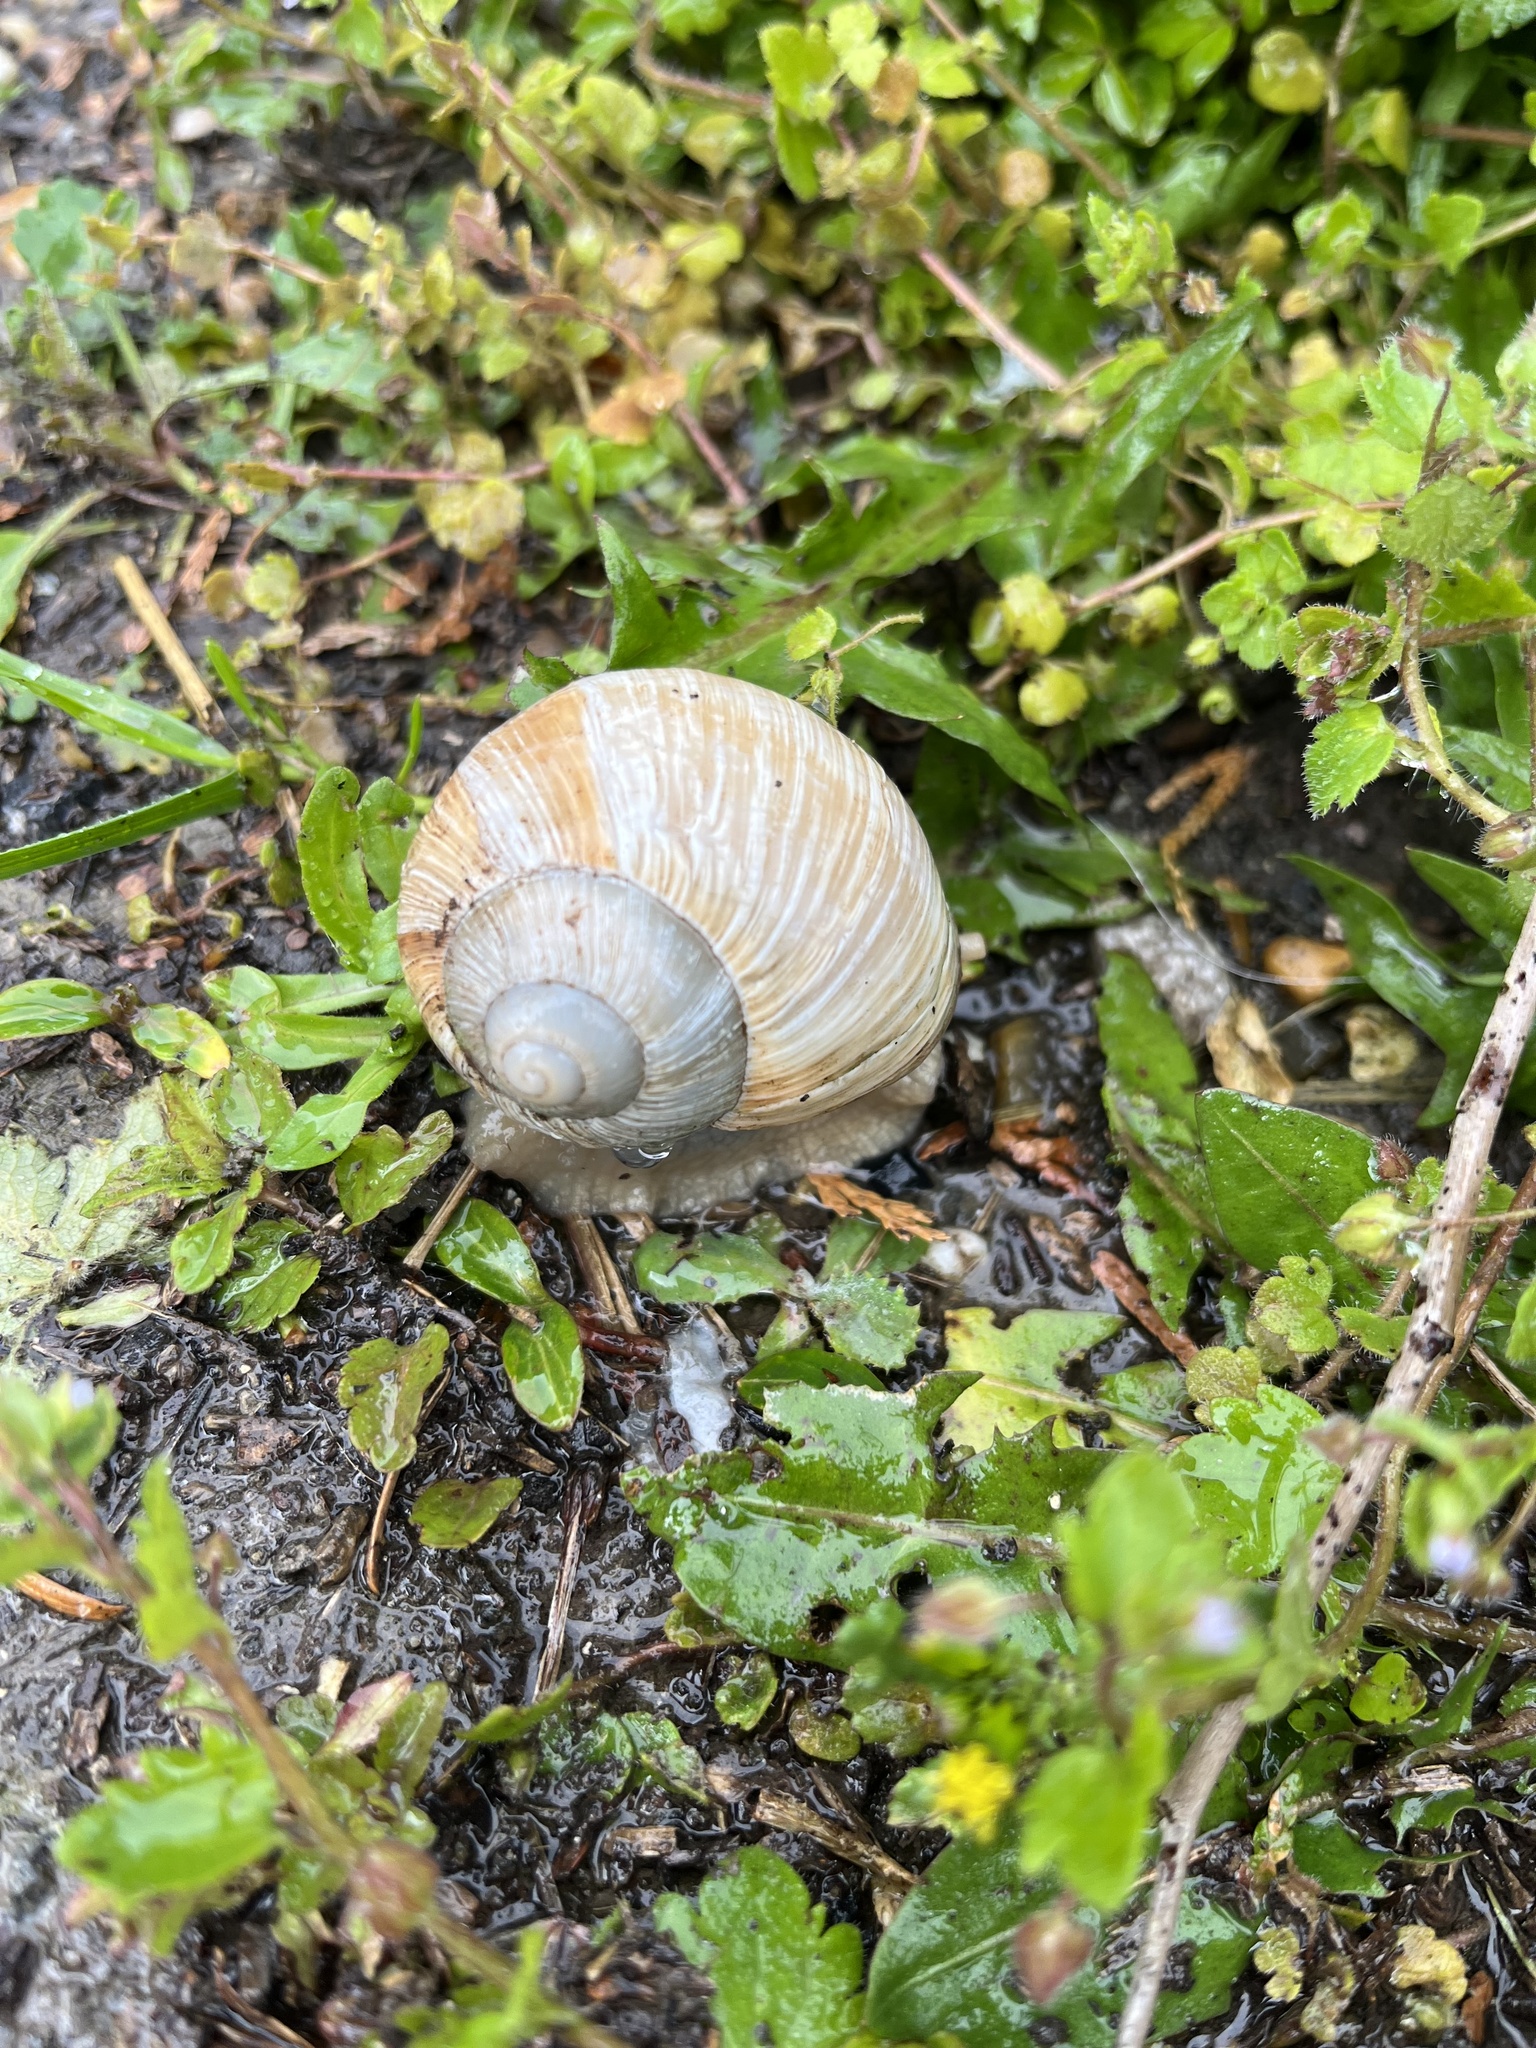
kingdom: Animalia
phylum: Mollusca
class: Gastropoda
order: Stylommatophora
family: Helicidae
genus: Helix
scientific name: Helix pomatia
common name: Roman snail
